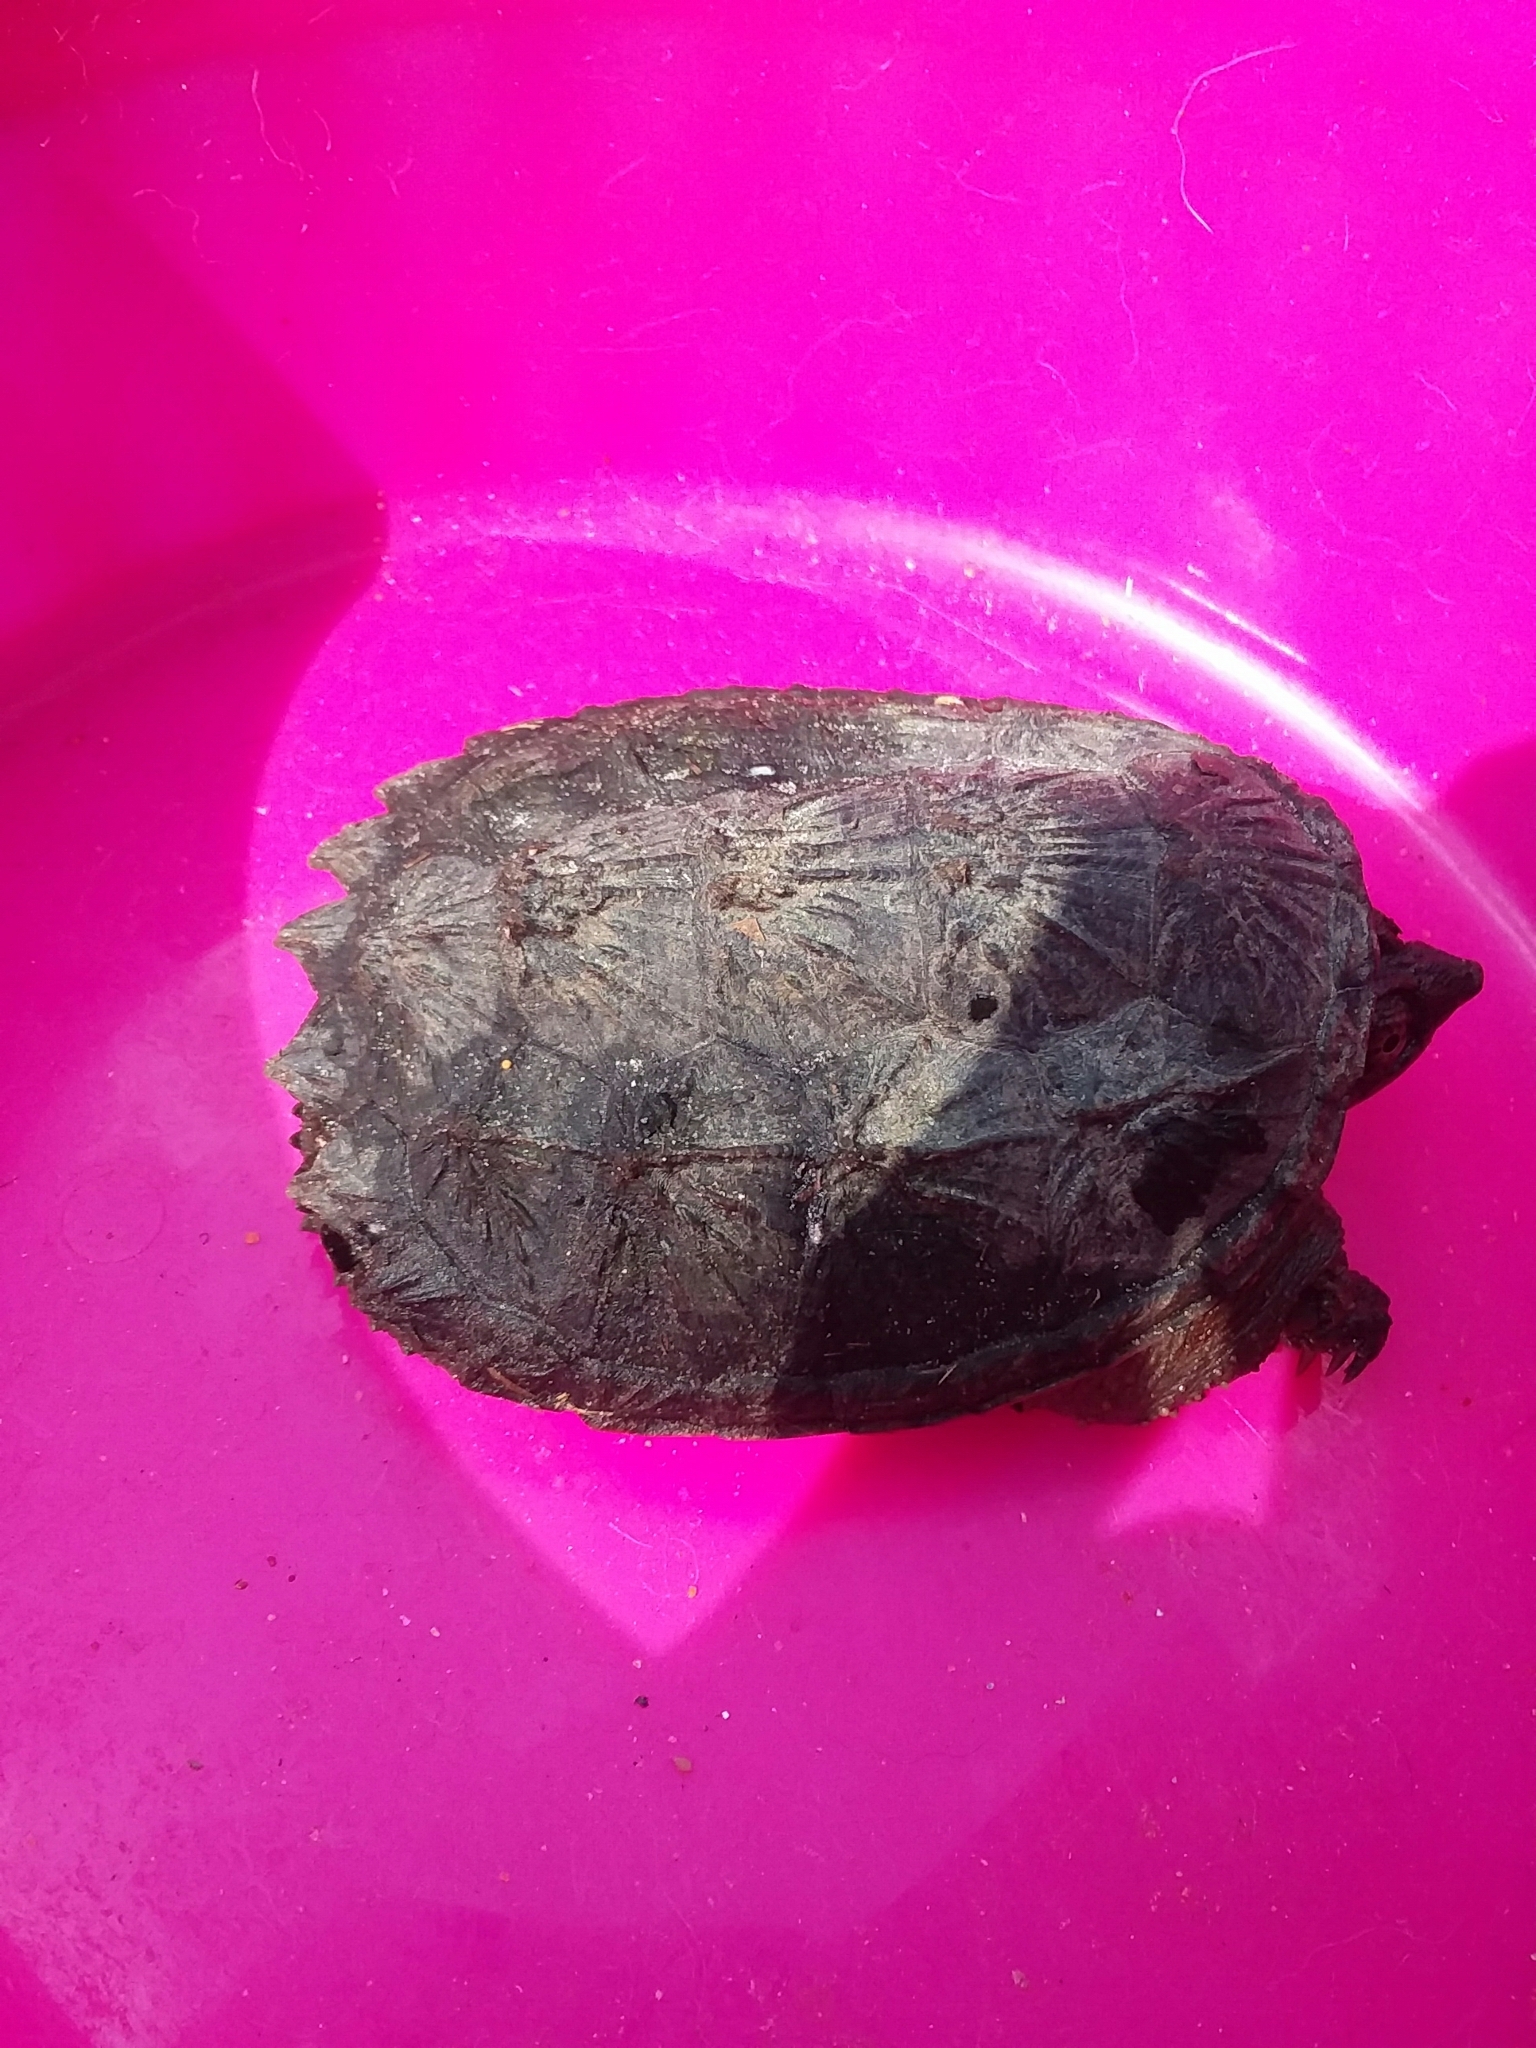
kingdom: Animalia
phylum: Chordata
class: Testudines
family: Chelydridae
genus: Chelydra
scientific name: Chelydra serpentina
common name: Common snapping turtle
